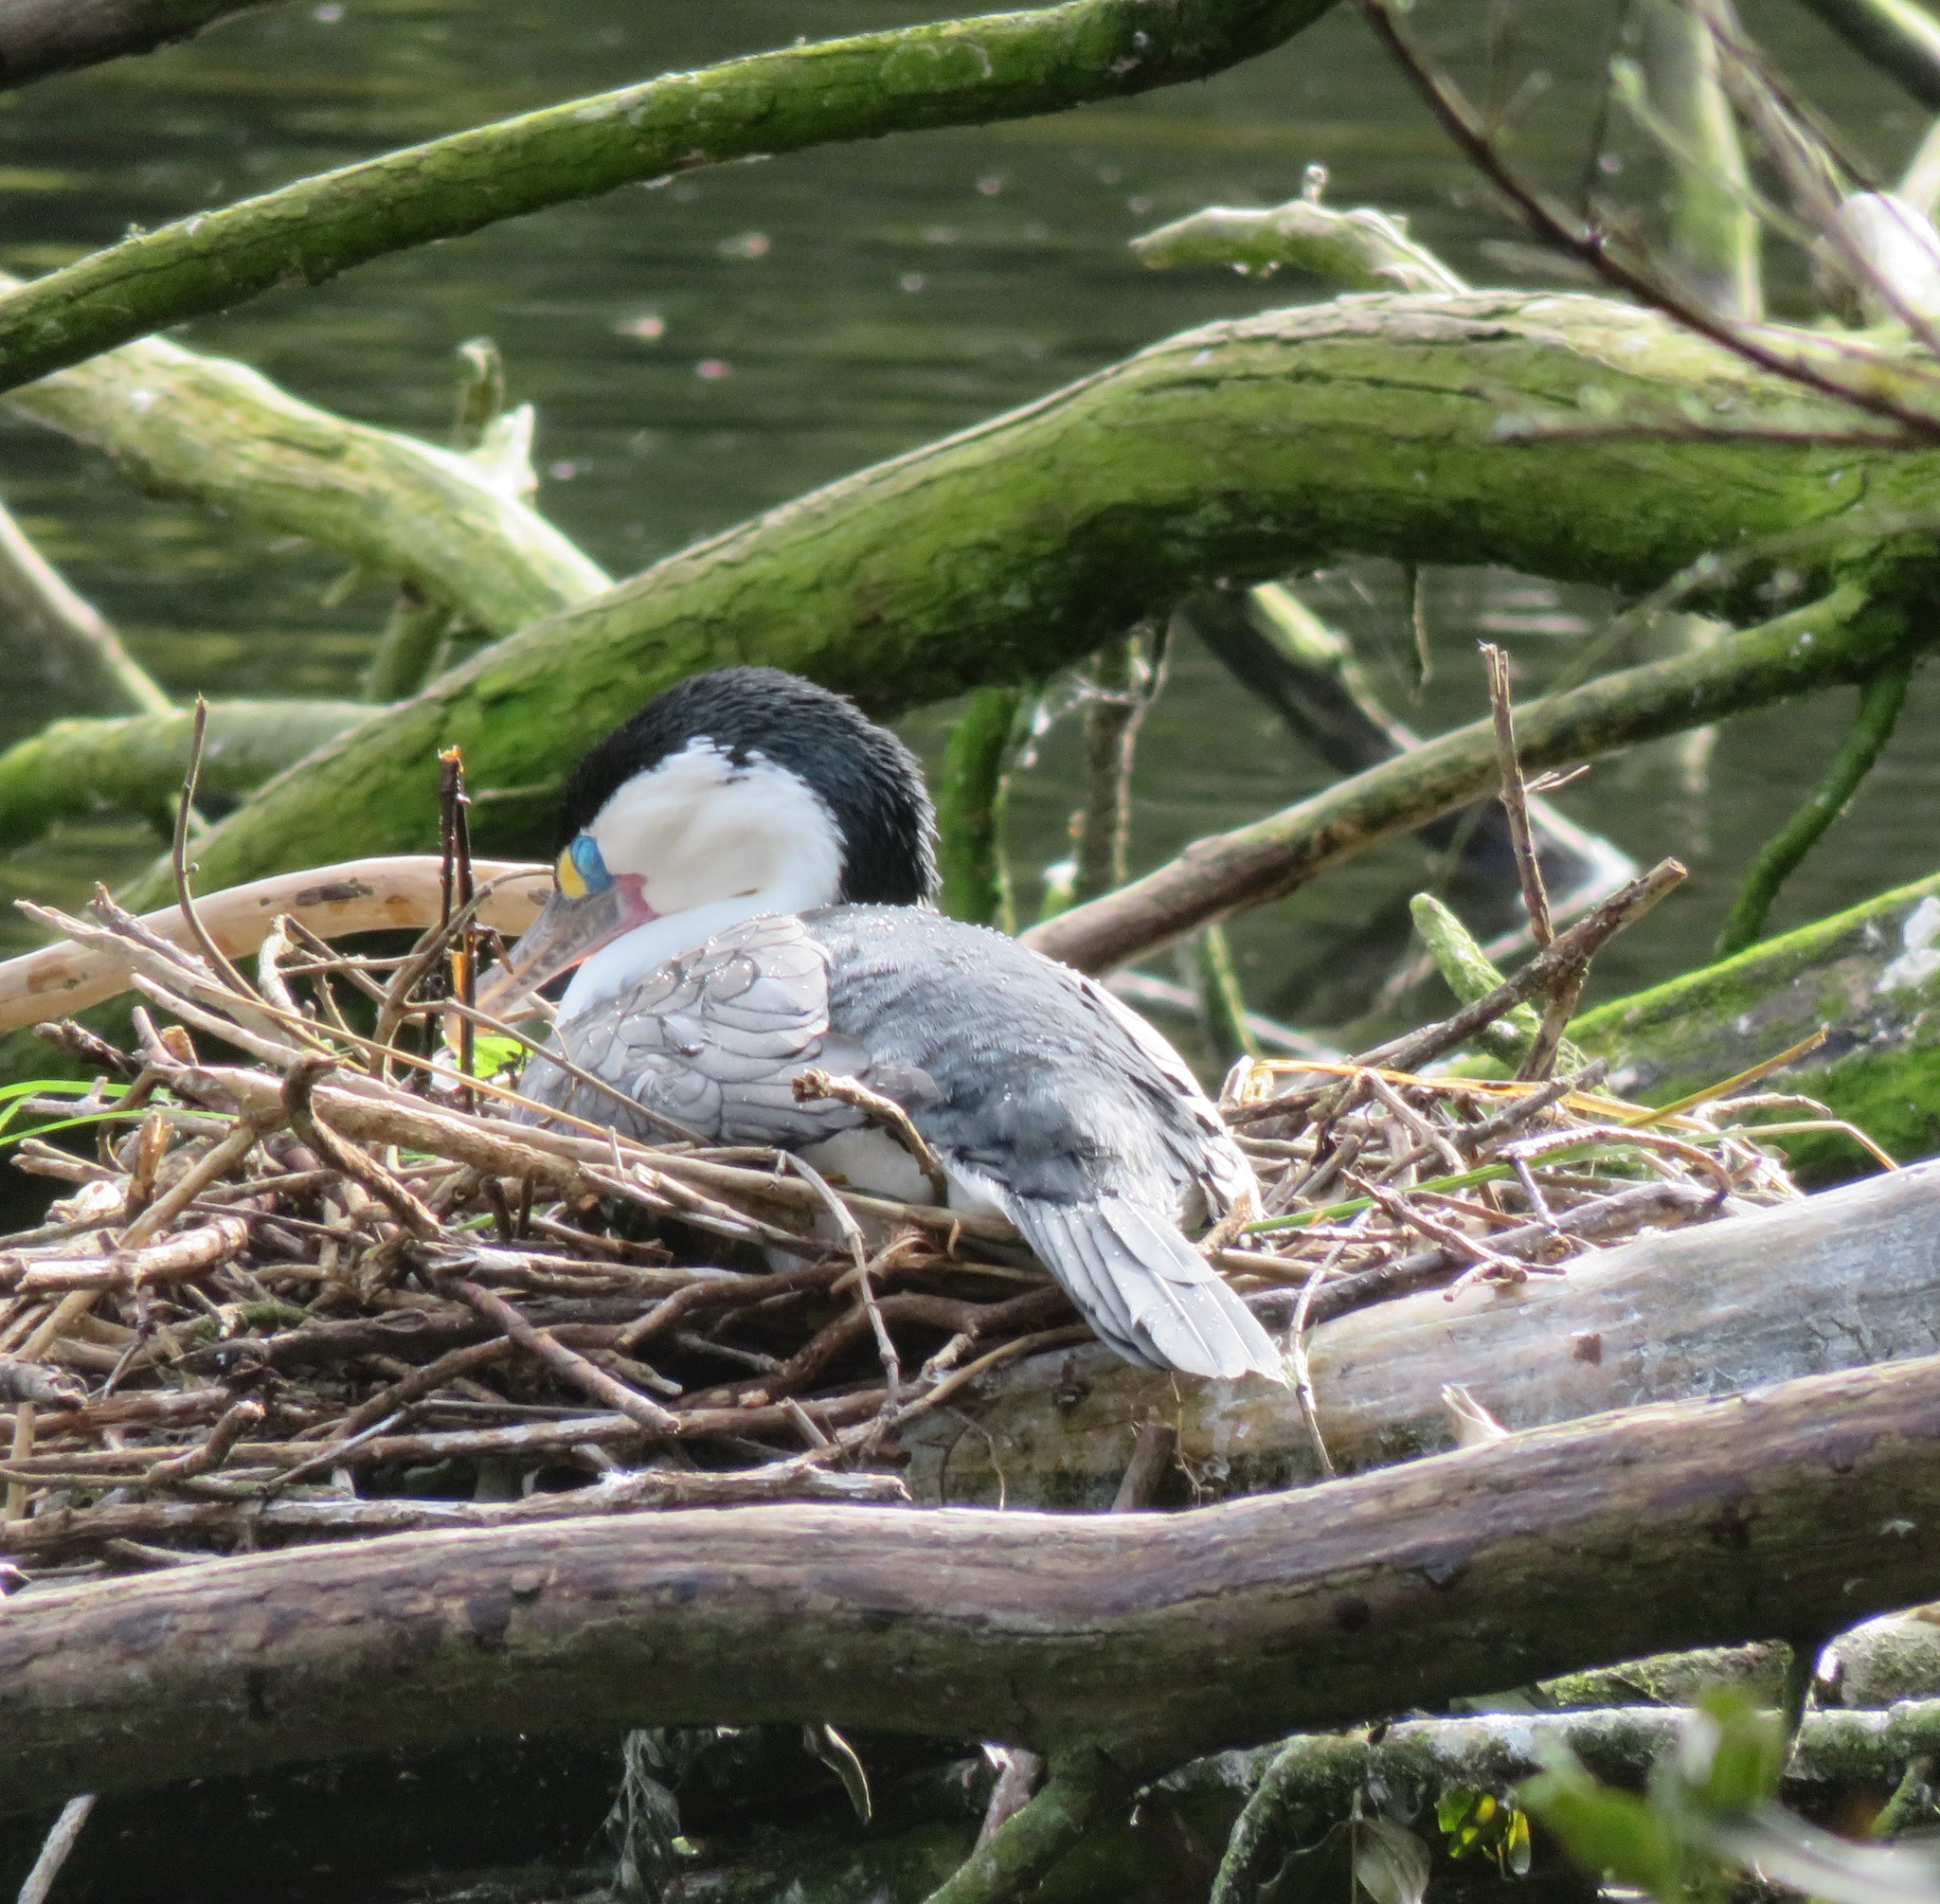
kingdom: Animalia
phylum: Chordata
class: Aves
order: Suliformes
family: Phalacrocoracidae
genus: Phalacrocorax
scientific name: Phalacrocorax varius
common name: Pied cormorant
